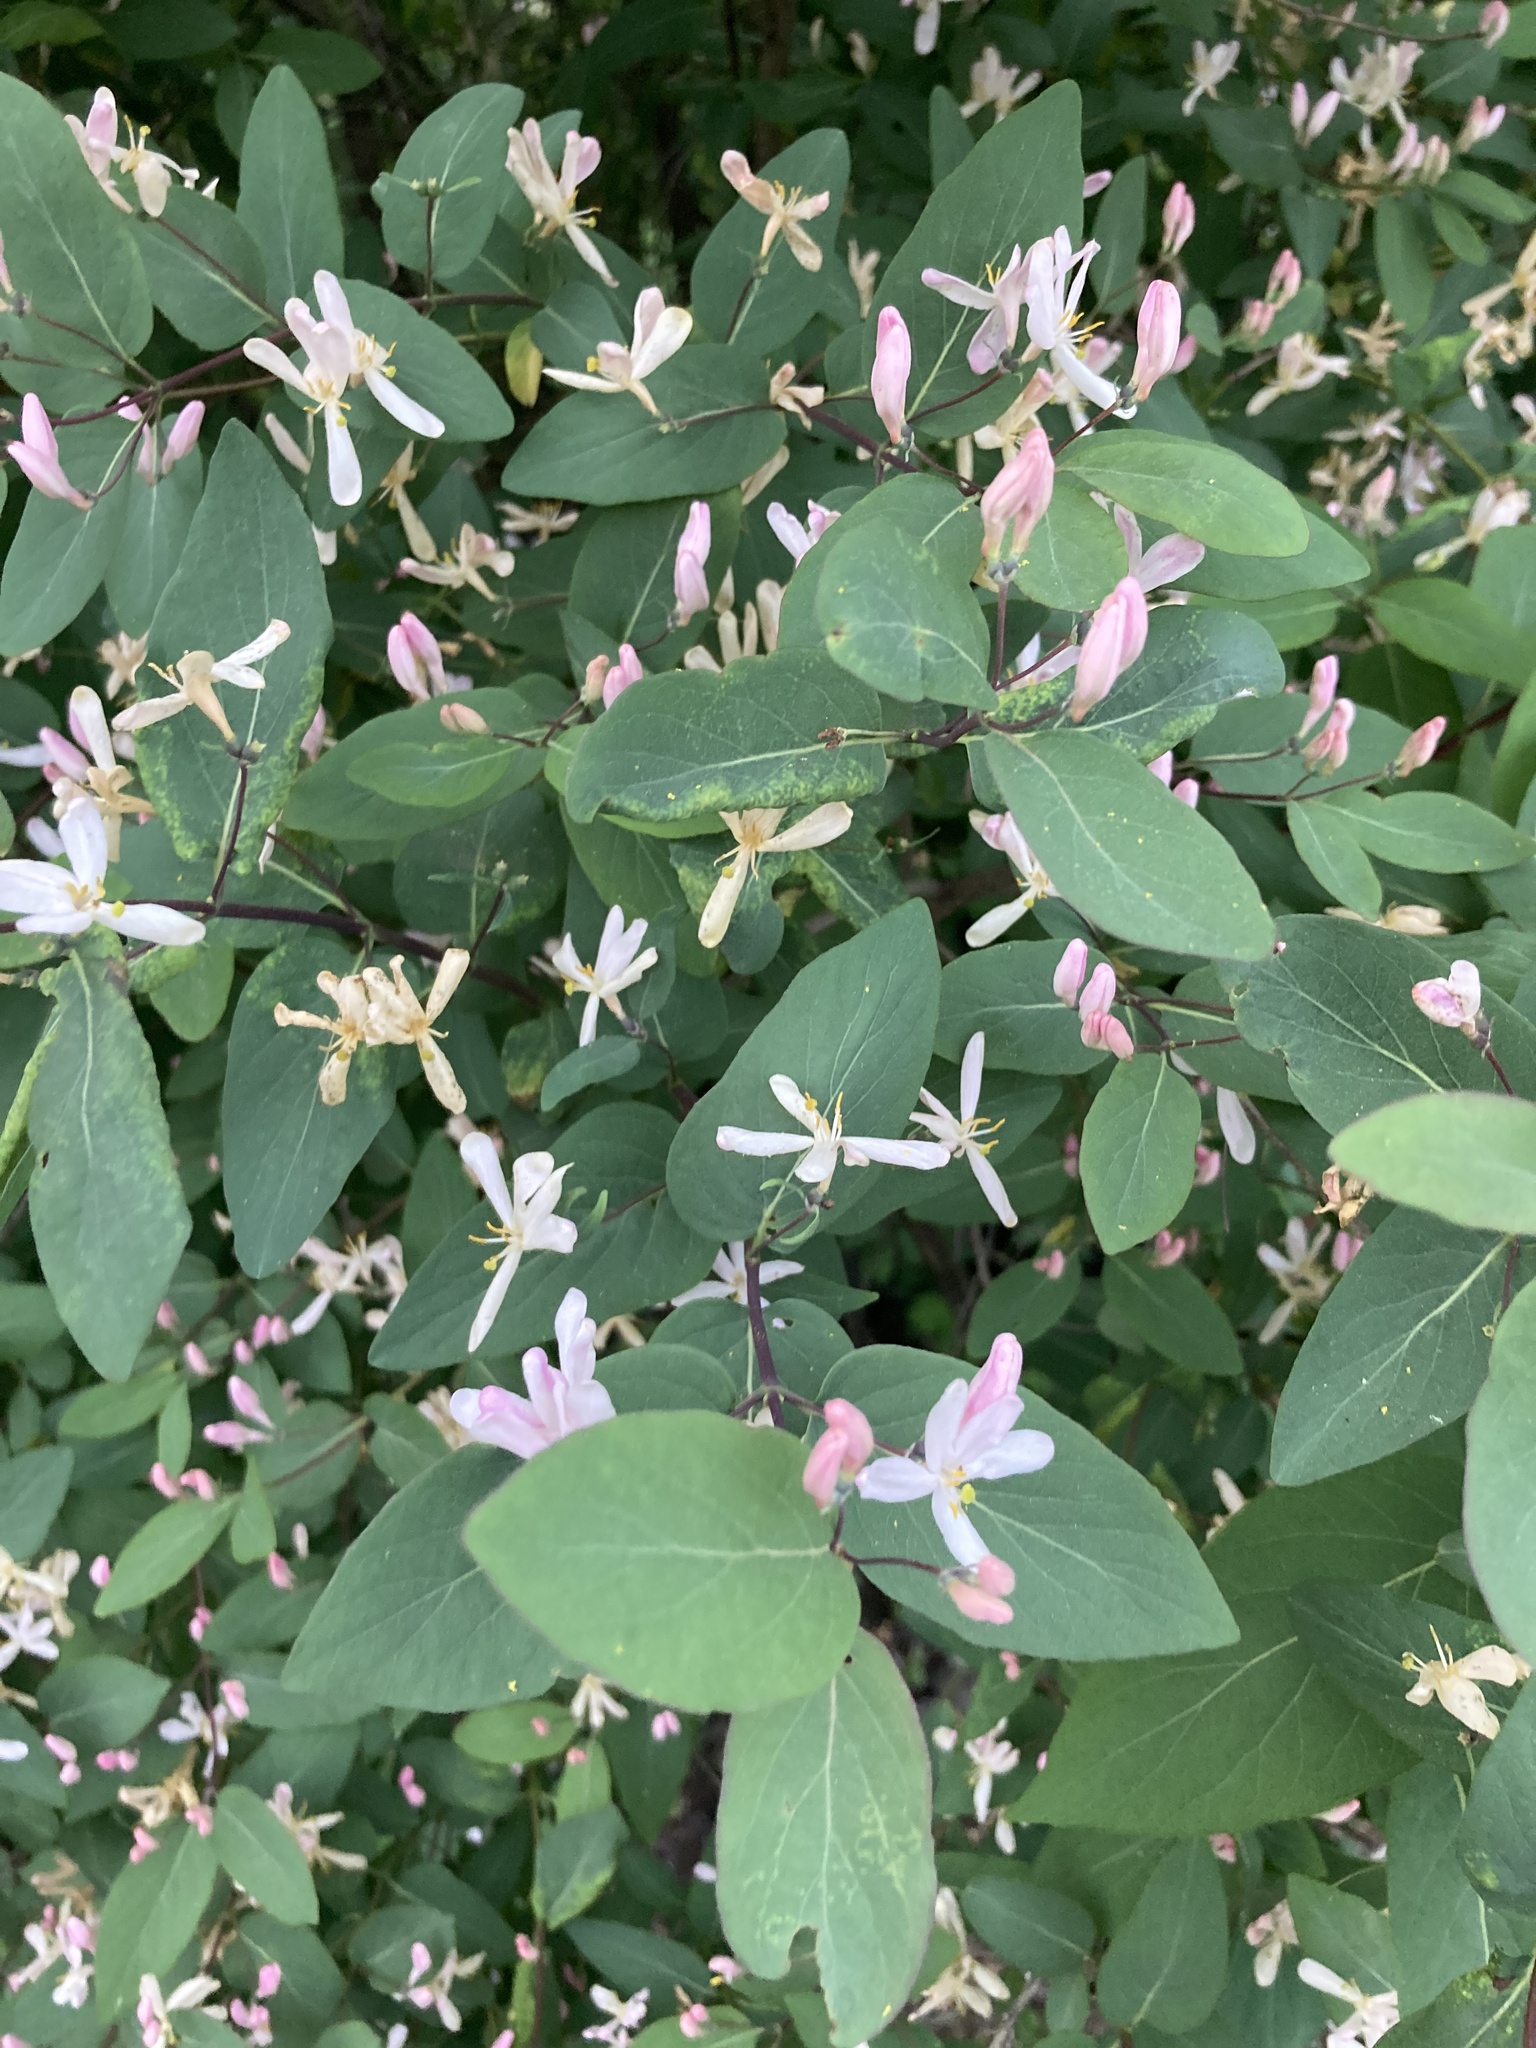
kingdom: Plantae
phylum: Tracheophyta
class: Magnoliopsida
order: Dipsacales
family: Caprifoliaceae
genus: Lonicera
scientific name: Lonicera tatarica
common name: Tatarian honeysuckle
